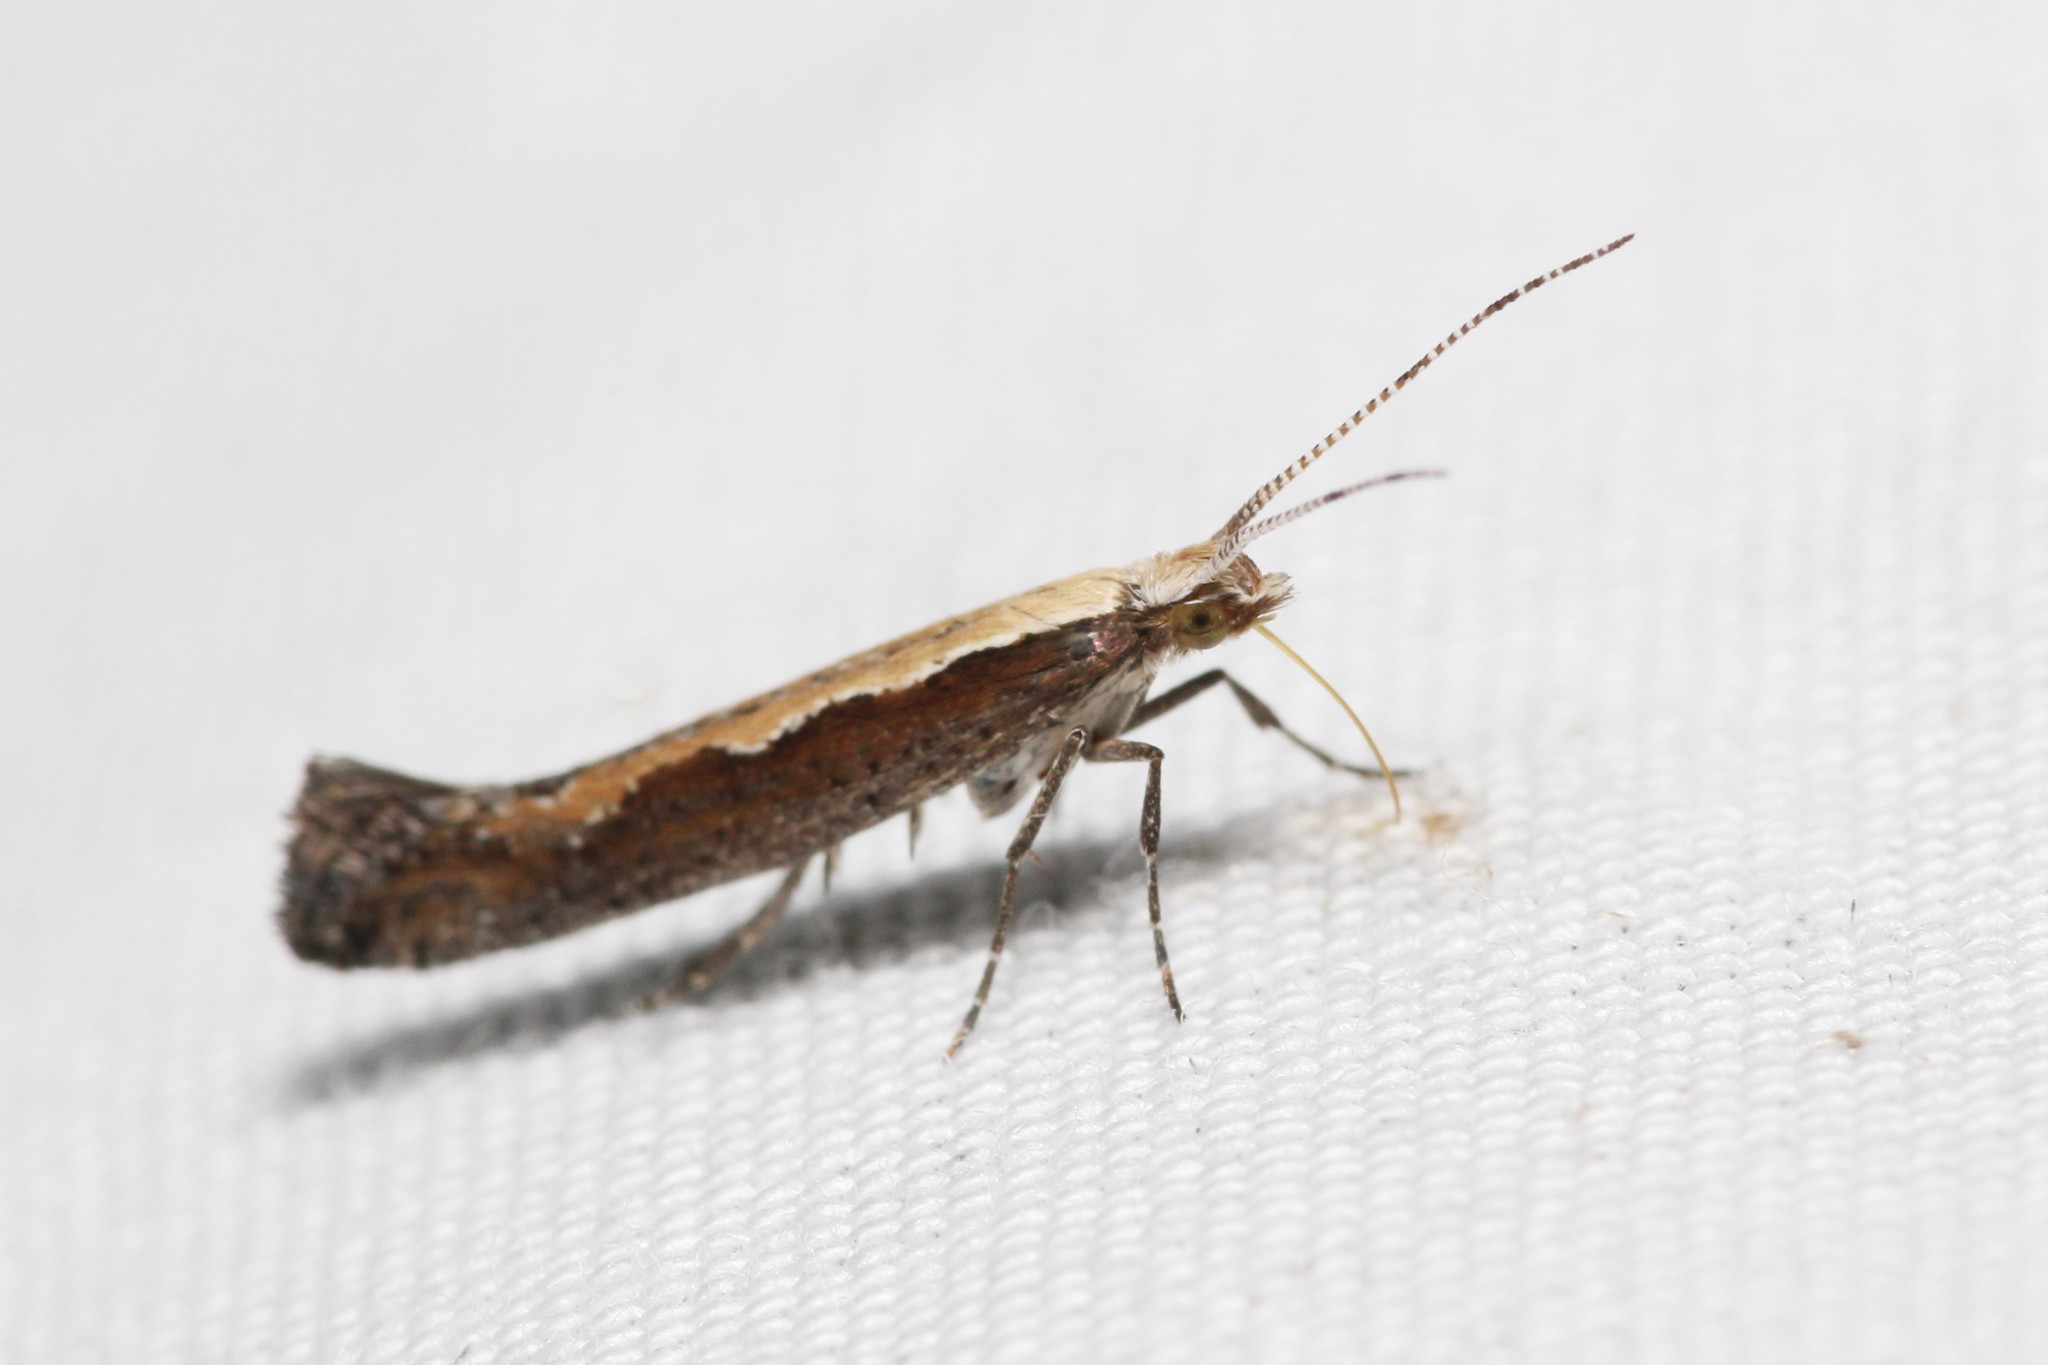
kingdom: Animalia
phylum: Arthropoda
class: Insecta
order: Lepidoptera
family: Plutellidae
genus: Plutella
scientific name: Plutella xylostella
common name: Diamond-back moth
